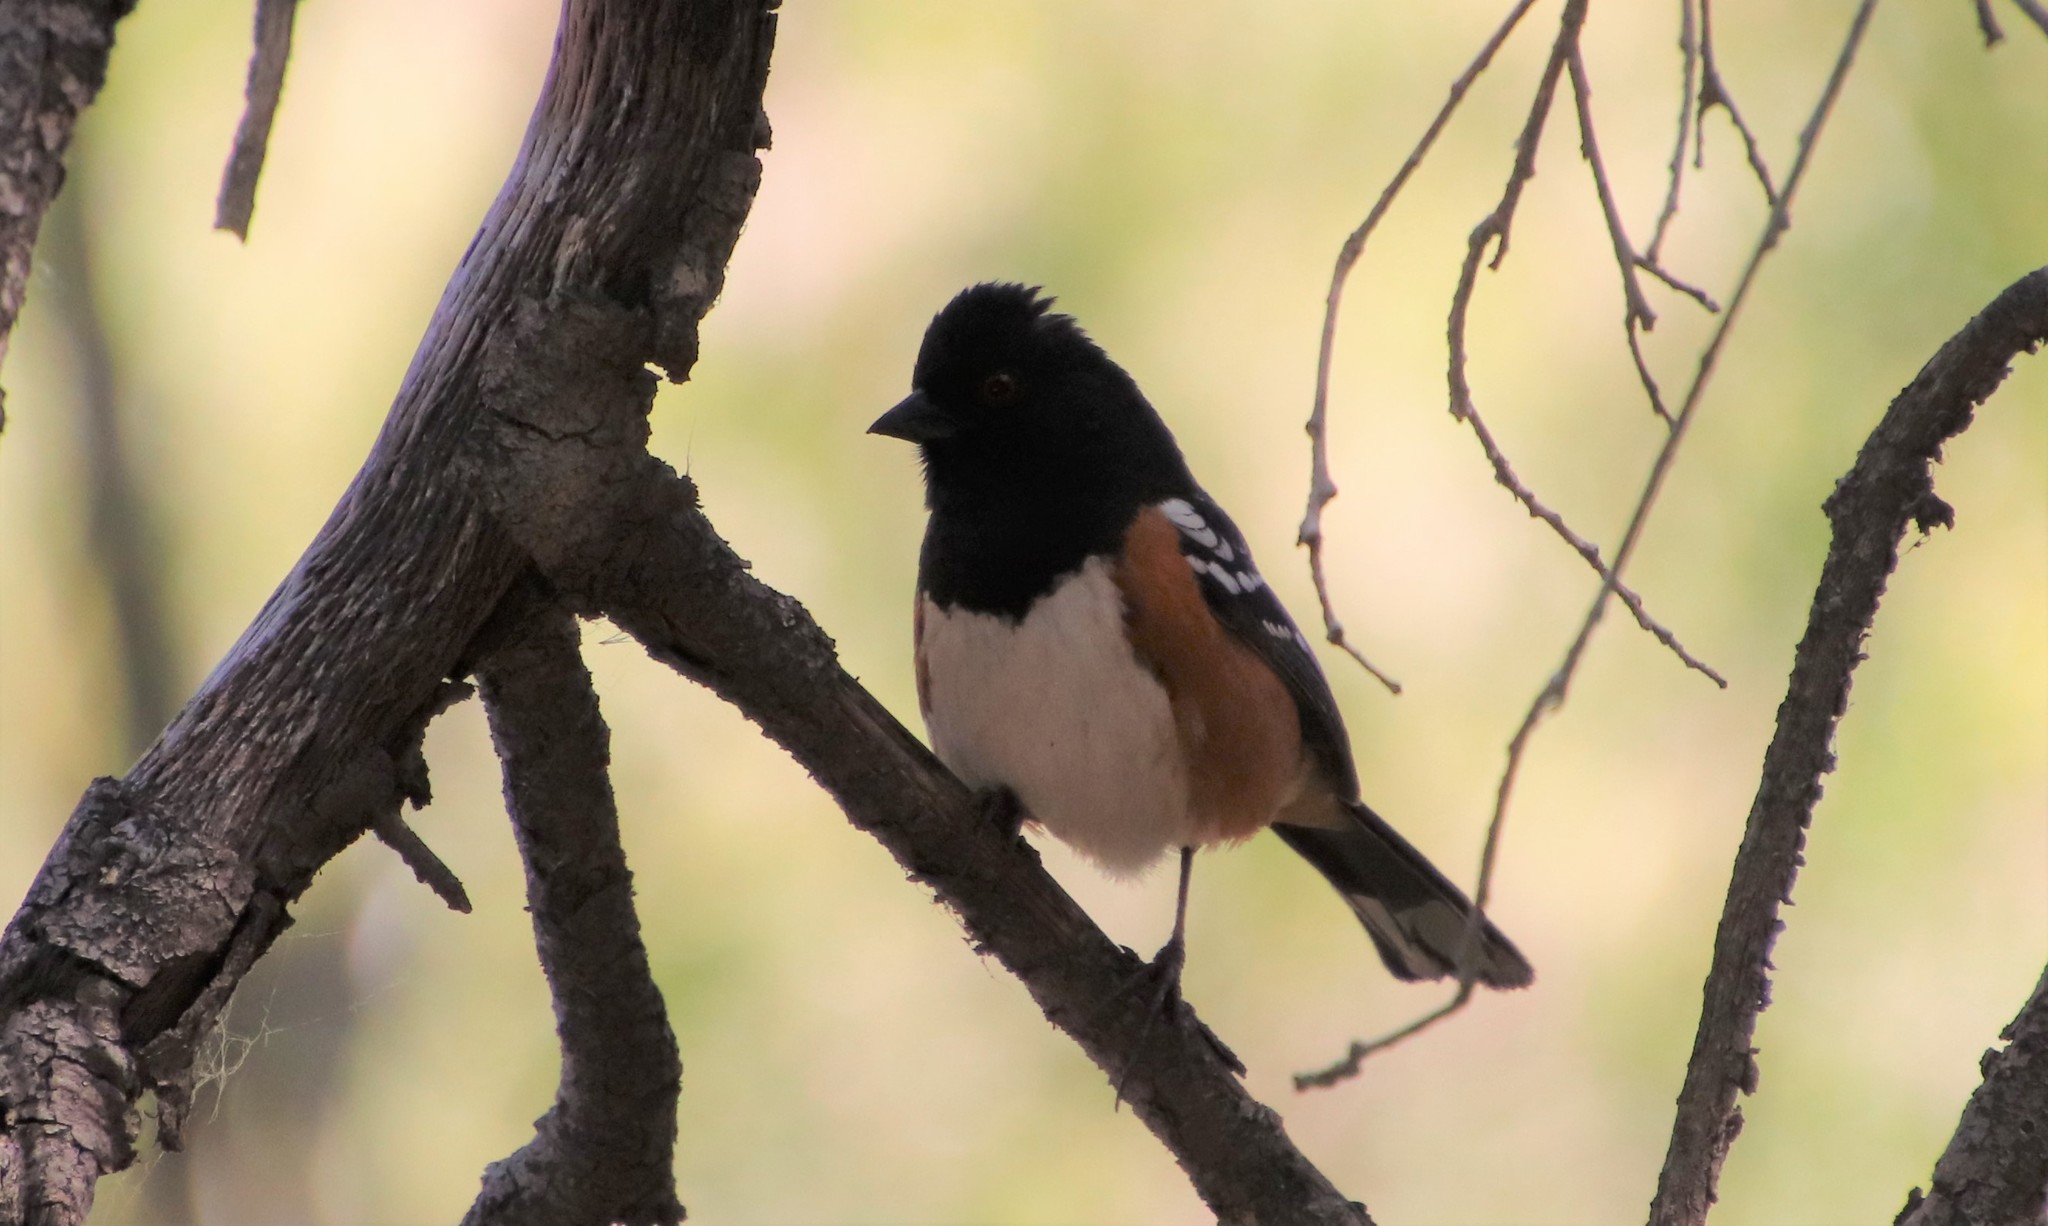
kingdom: Animalia
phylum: Chordata
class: Aves
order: Passeriformes
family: Passerellidae
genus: Pipilo
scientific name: Pipilo maculatus
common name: Spotted towhee
